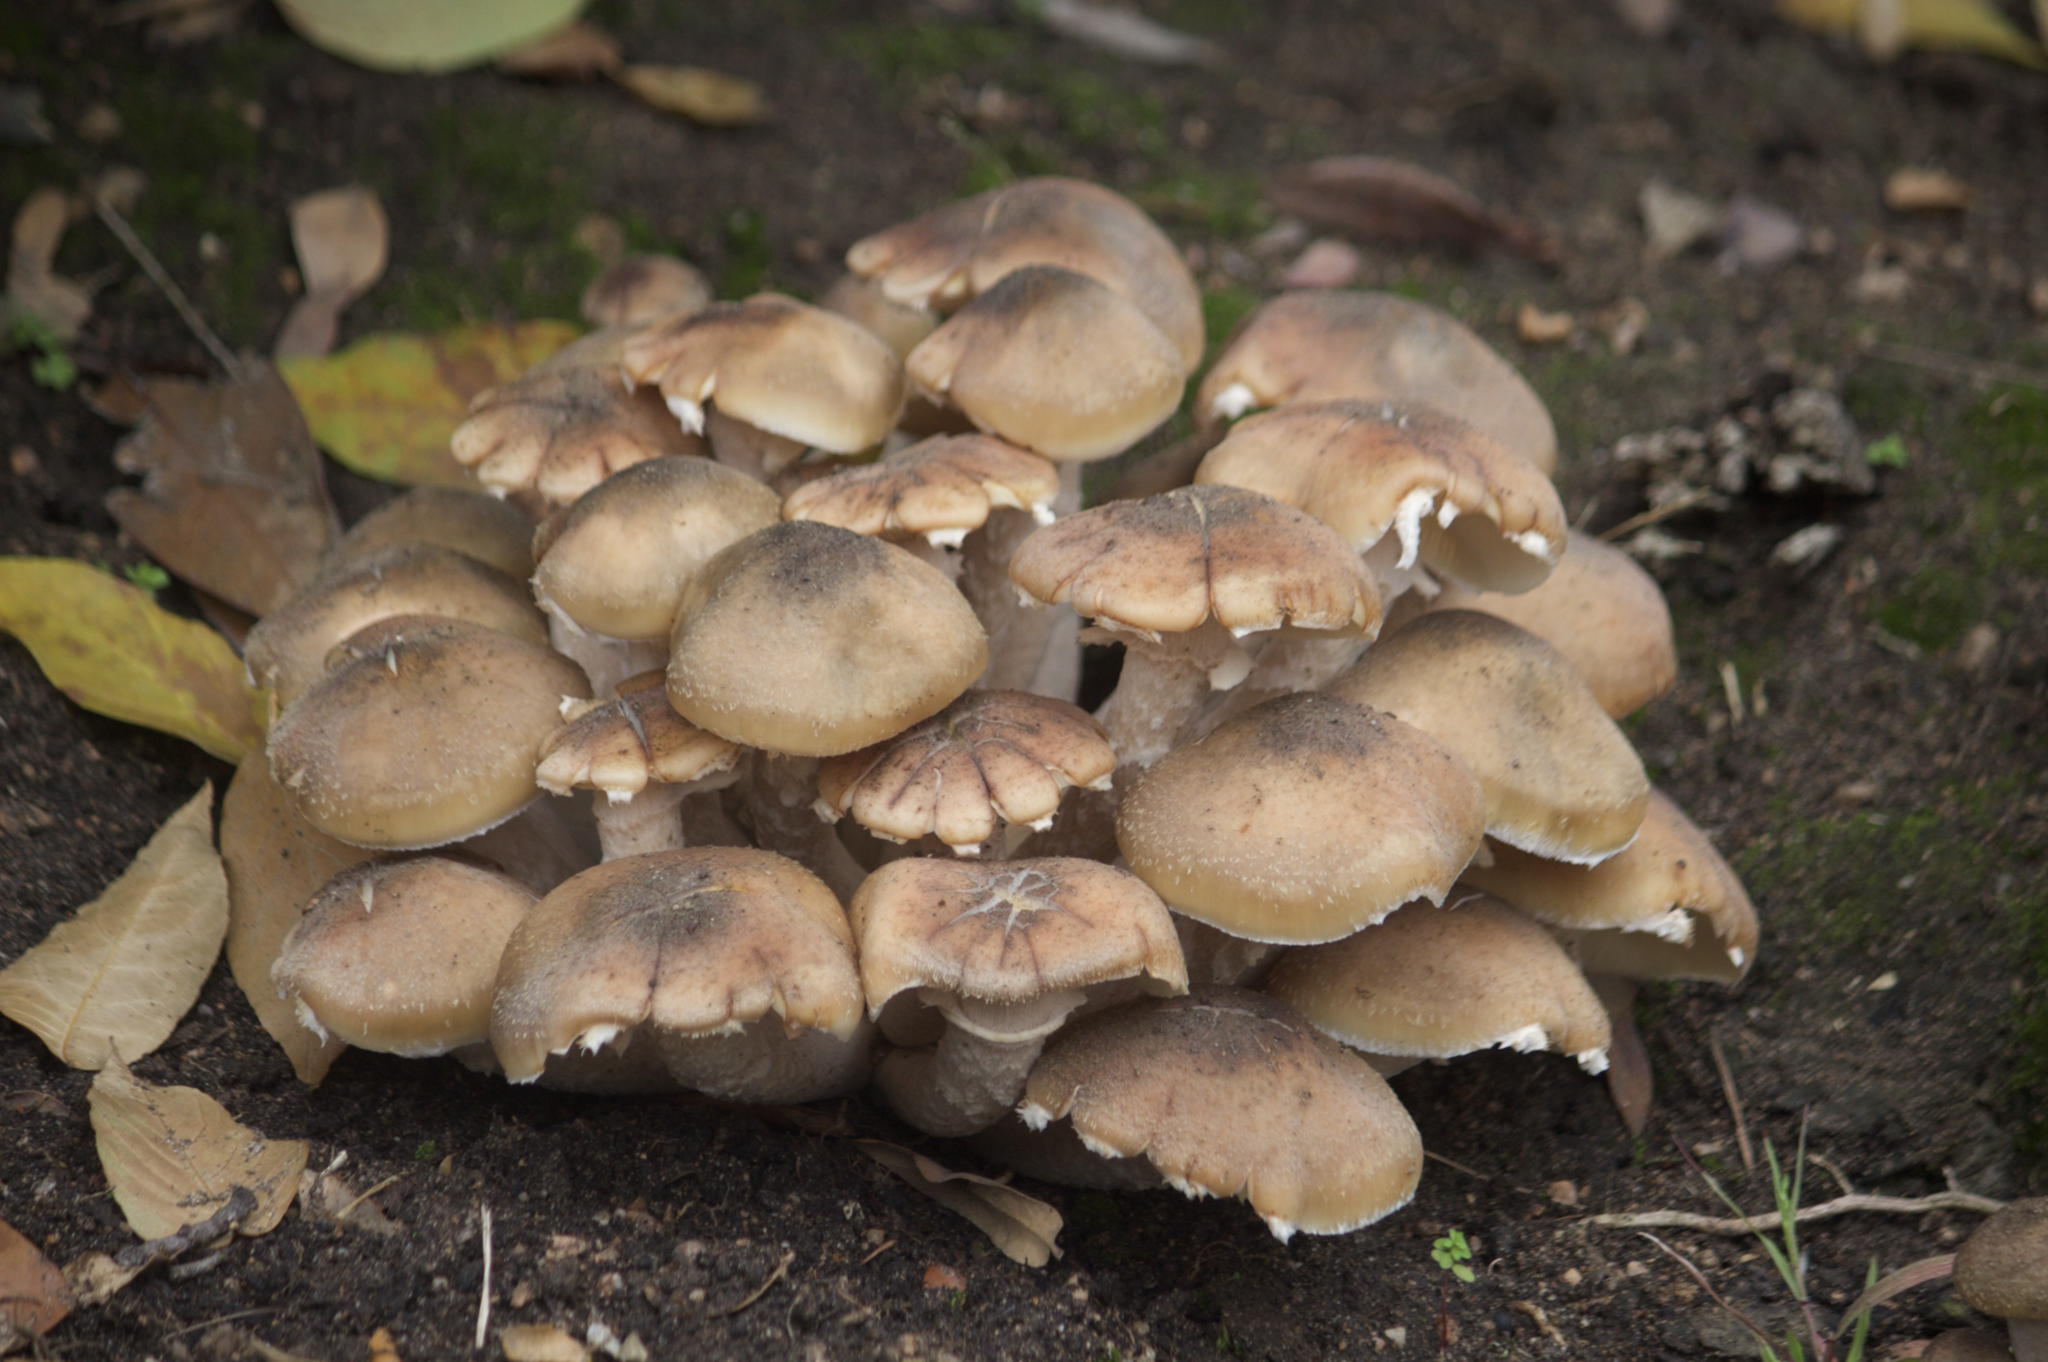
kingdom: Fungi
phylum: Basidiomycota
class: Agaricomycetes
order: Agaricales
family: Physalacriaceae
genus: Armillaria
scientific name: Armillaria mellea
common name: Honey fungus
